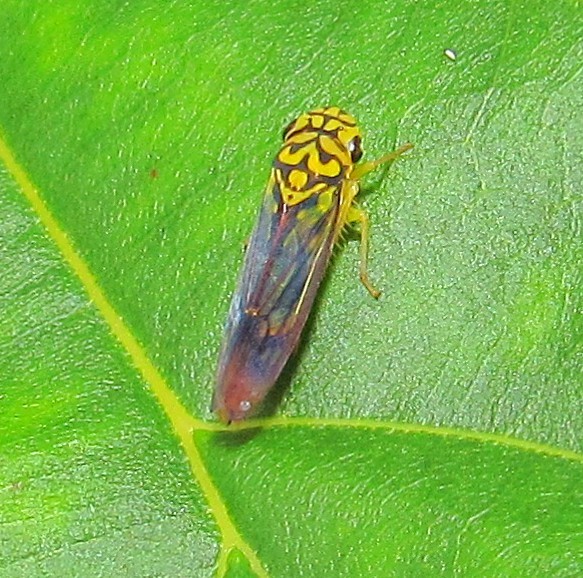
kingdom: Animalia
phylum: Arthropoda
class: Insecta
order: Hemiptera
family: Cicadellidae
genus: Dilobopterus
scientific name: Dilobopterus costalimai
